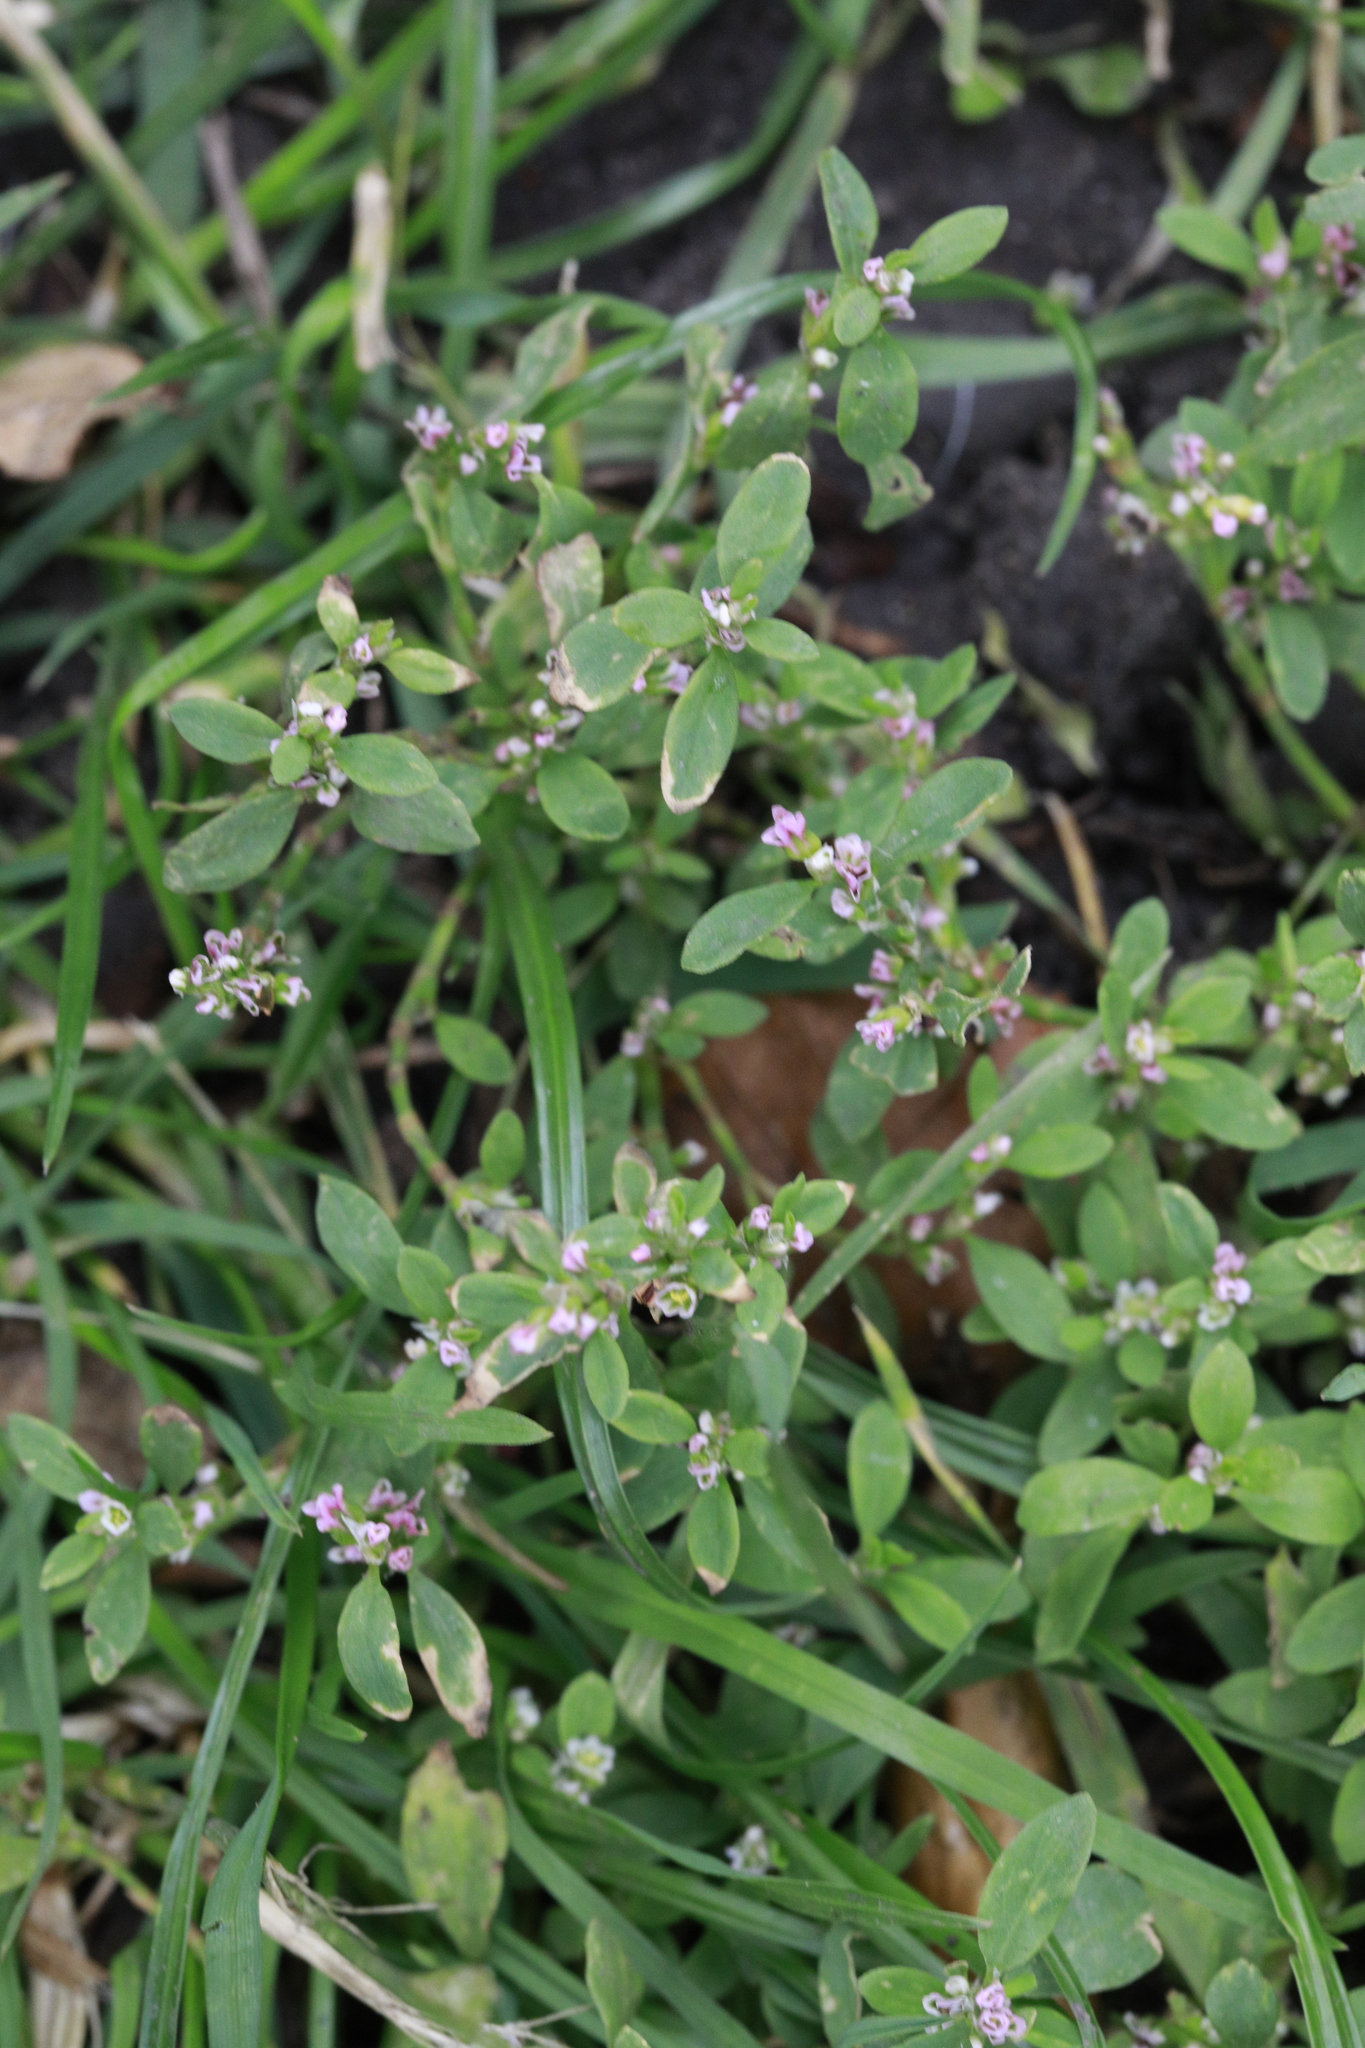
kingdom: Plantae
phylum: Tracheophyta
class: Magnoliopsida
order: Caryophyllales
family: Polygonaceae
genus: Polygonum
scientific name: Polygonum aviculare
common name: Prostrate knotweed
